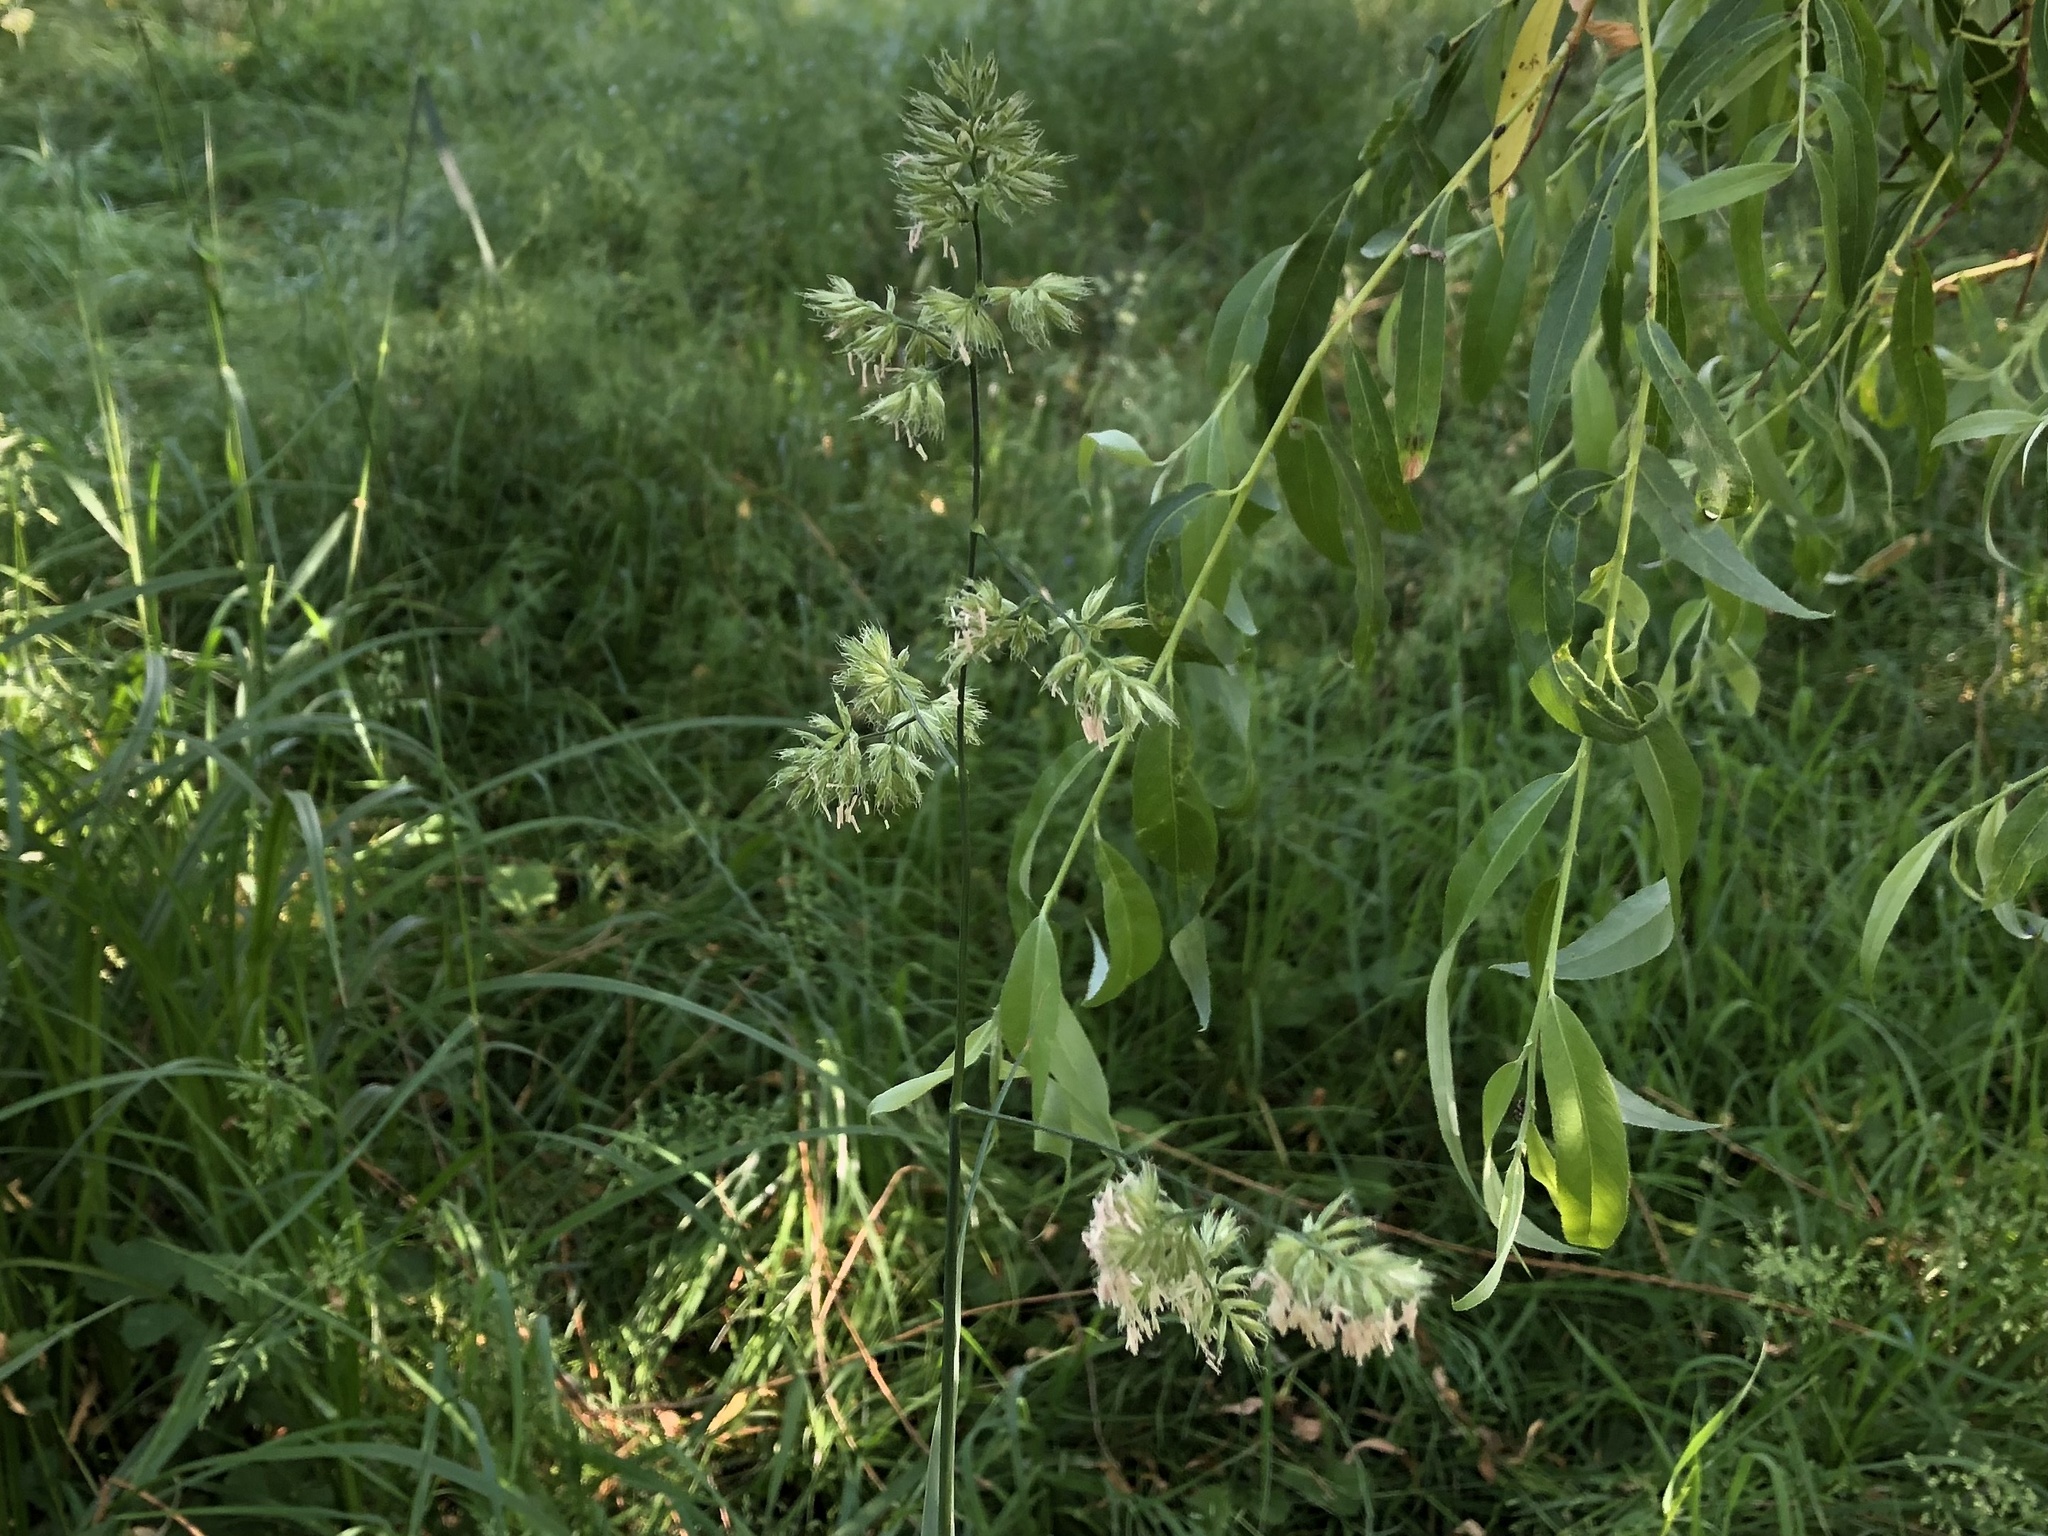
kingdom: Plantae
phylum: Tracheophyta
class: Liliopsida
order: Poales
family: Poaceae
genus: Dactylis
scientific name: Dactylis glomerata
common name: Orchardgrass
